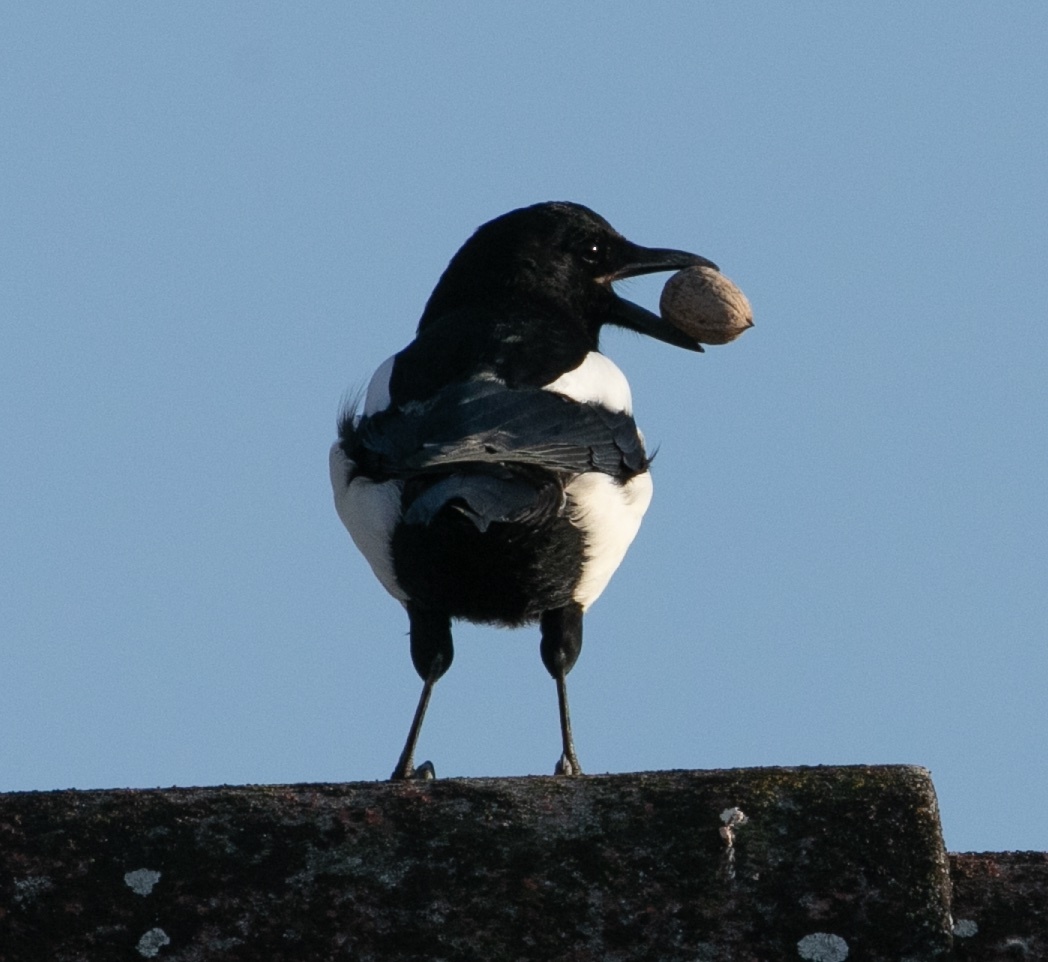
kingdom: Animalia
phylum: Chordata
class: Aves
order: Passeriformes
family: Corvidae
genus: Pica
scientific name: Pica pica
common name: Eurasian magpie
